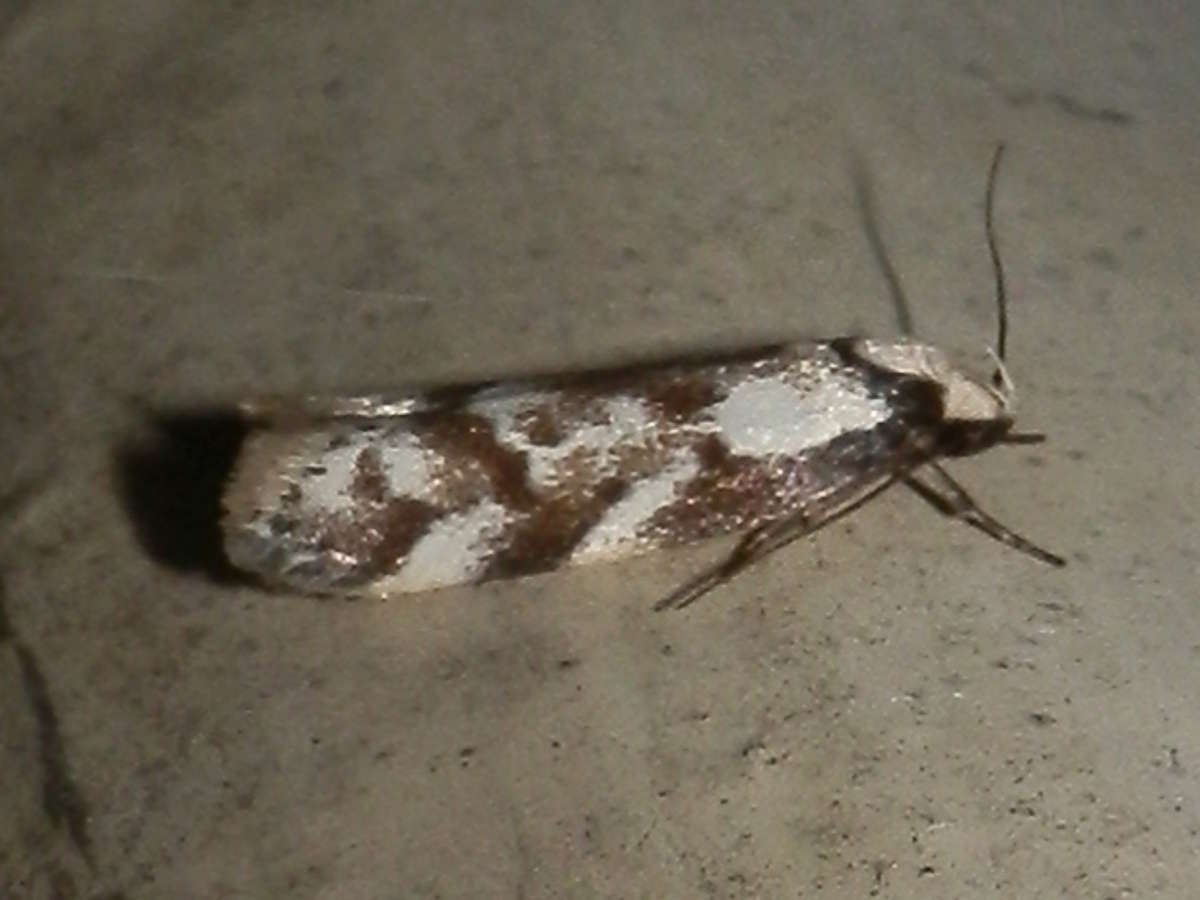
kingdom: Animalia
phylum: Arthropoda
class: Insecta
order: Lepidoptera
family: Oecophoridae
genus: Palimmeces
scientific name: Palimmeces hemiphanes
